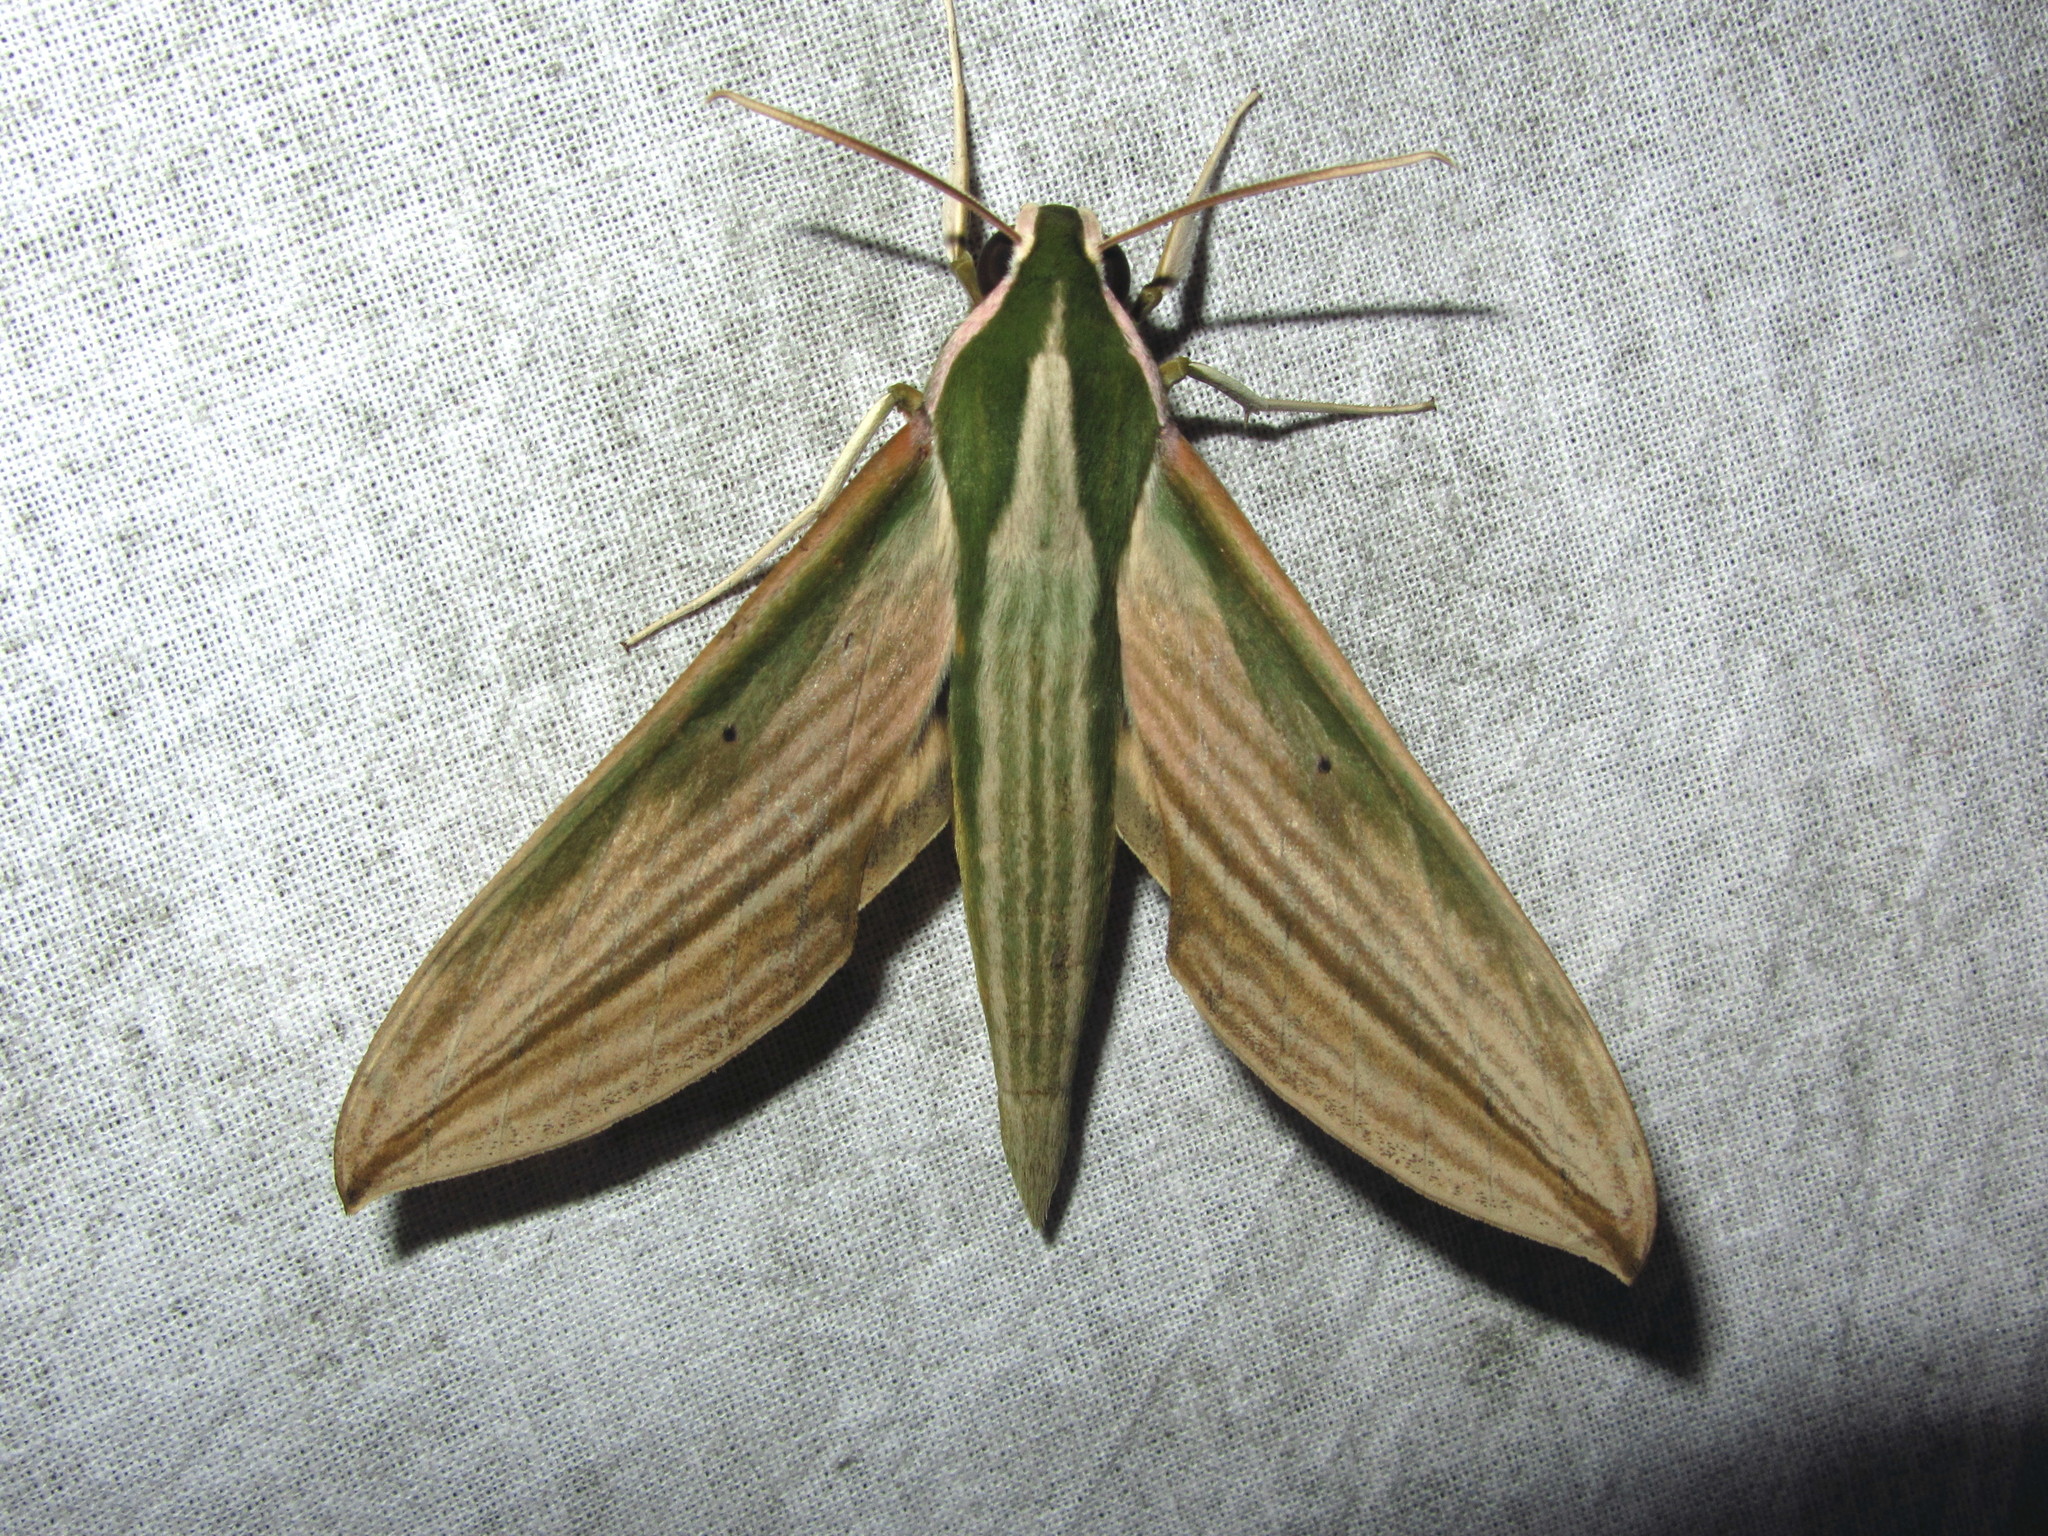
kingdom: Animalia
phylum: Arthropoda
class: Insecta
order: Lepidoptera
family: Sphingidae
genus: Cechetra
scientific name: Cechetra lineosa
